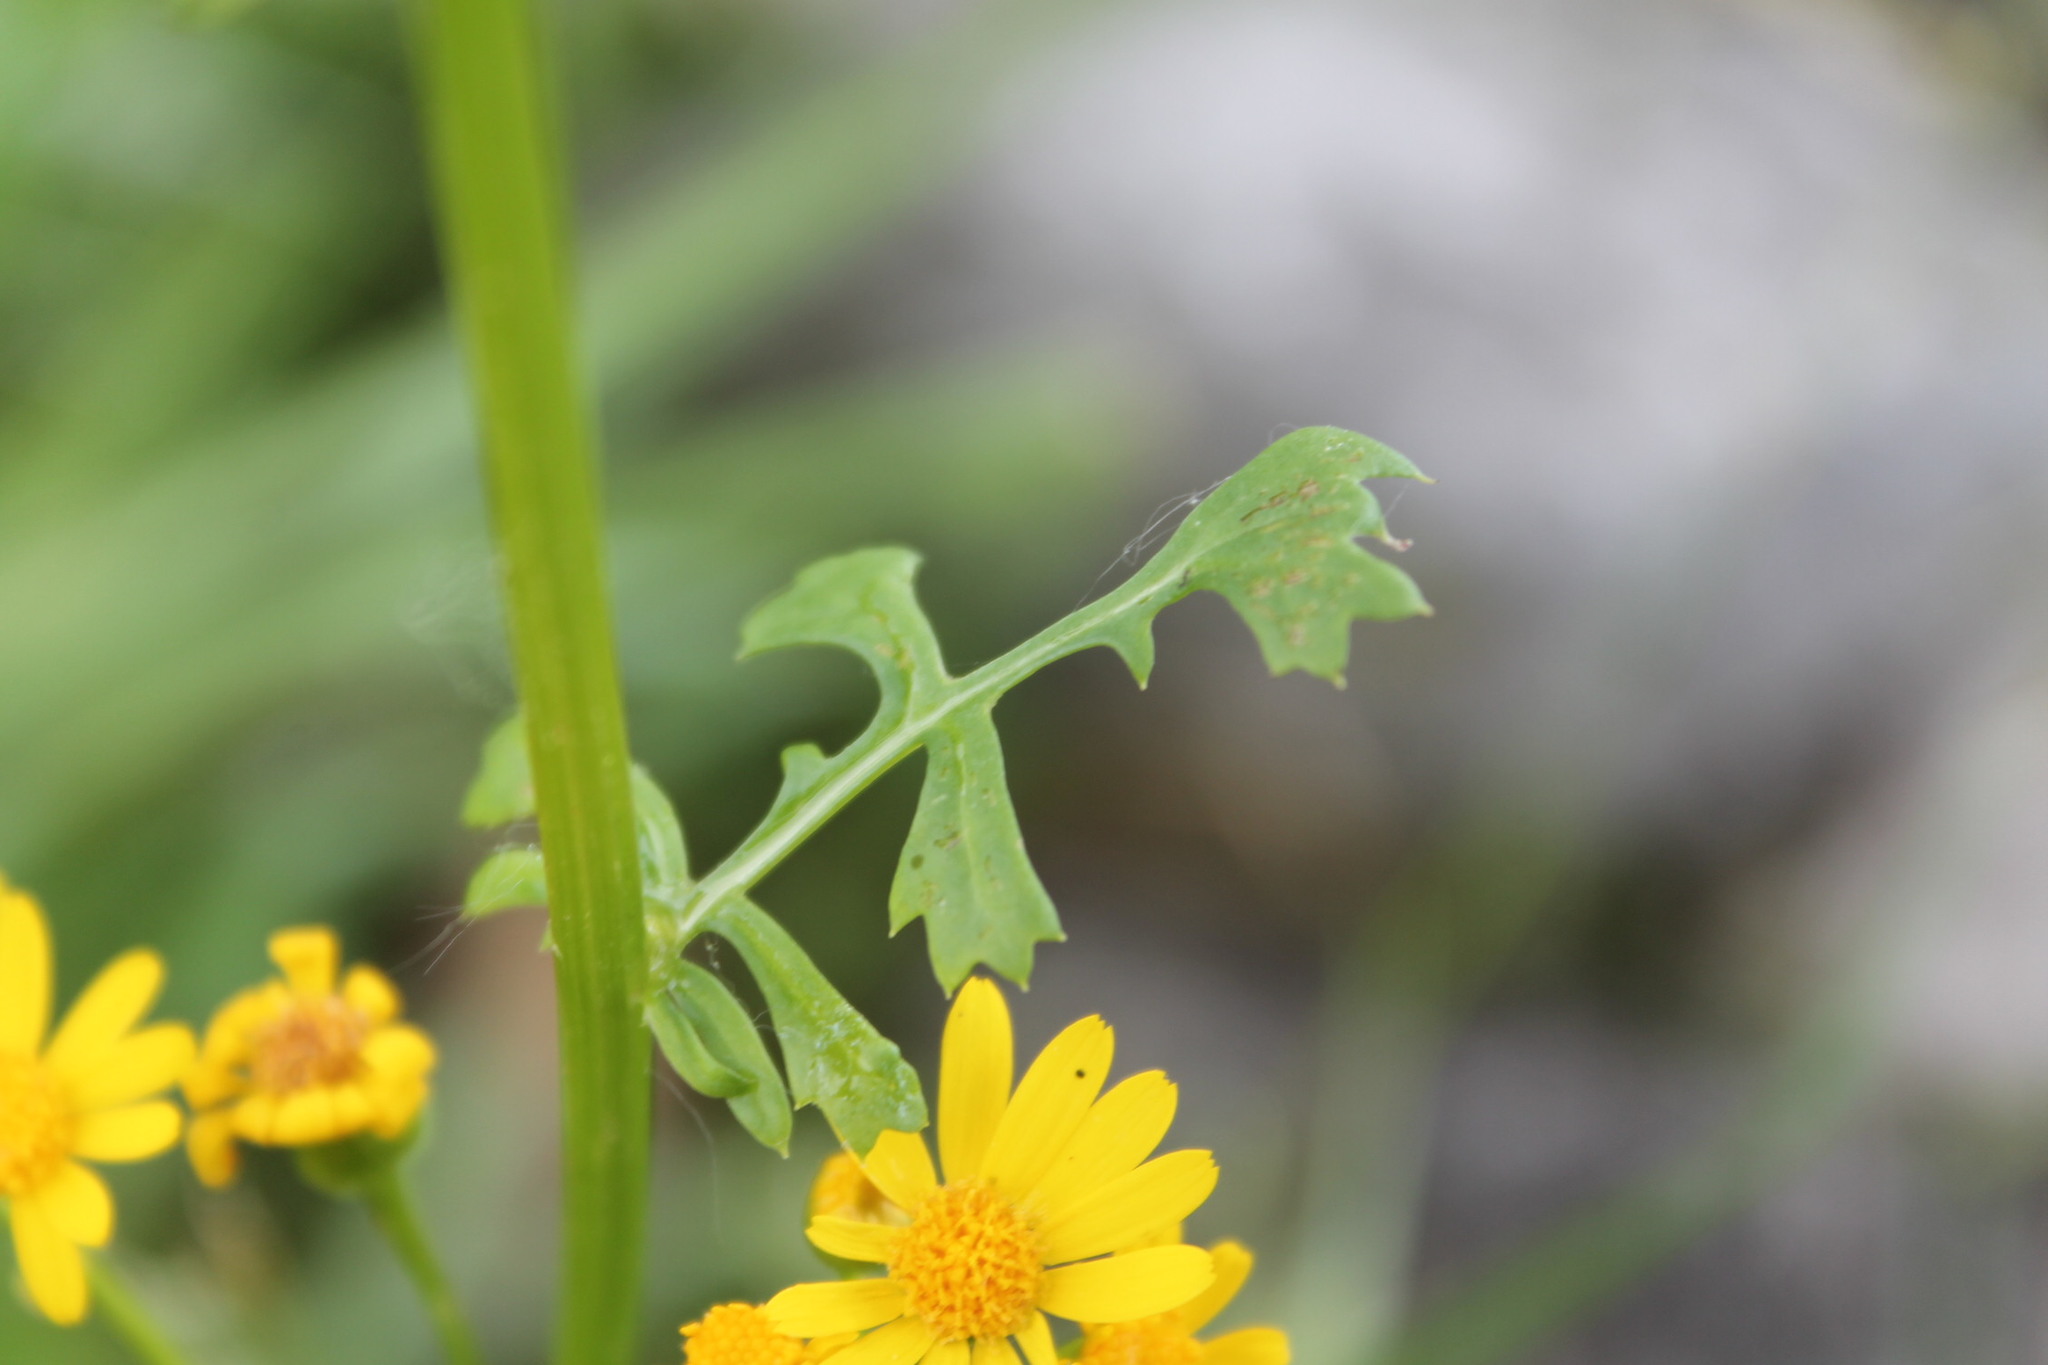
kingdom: Plantae
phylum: Tracheophyta
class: Magnoliopsida
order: Asterales
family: Asteraceae
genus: Packera
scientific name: Packera glabella
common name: Butterweed
